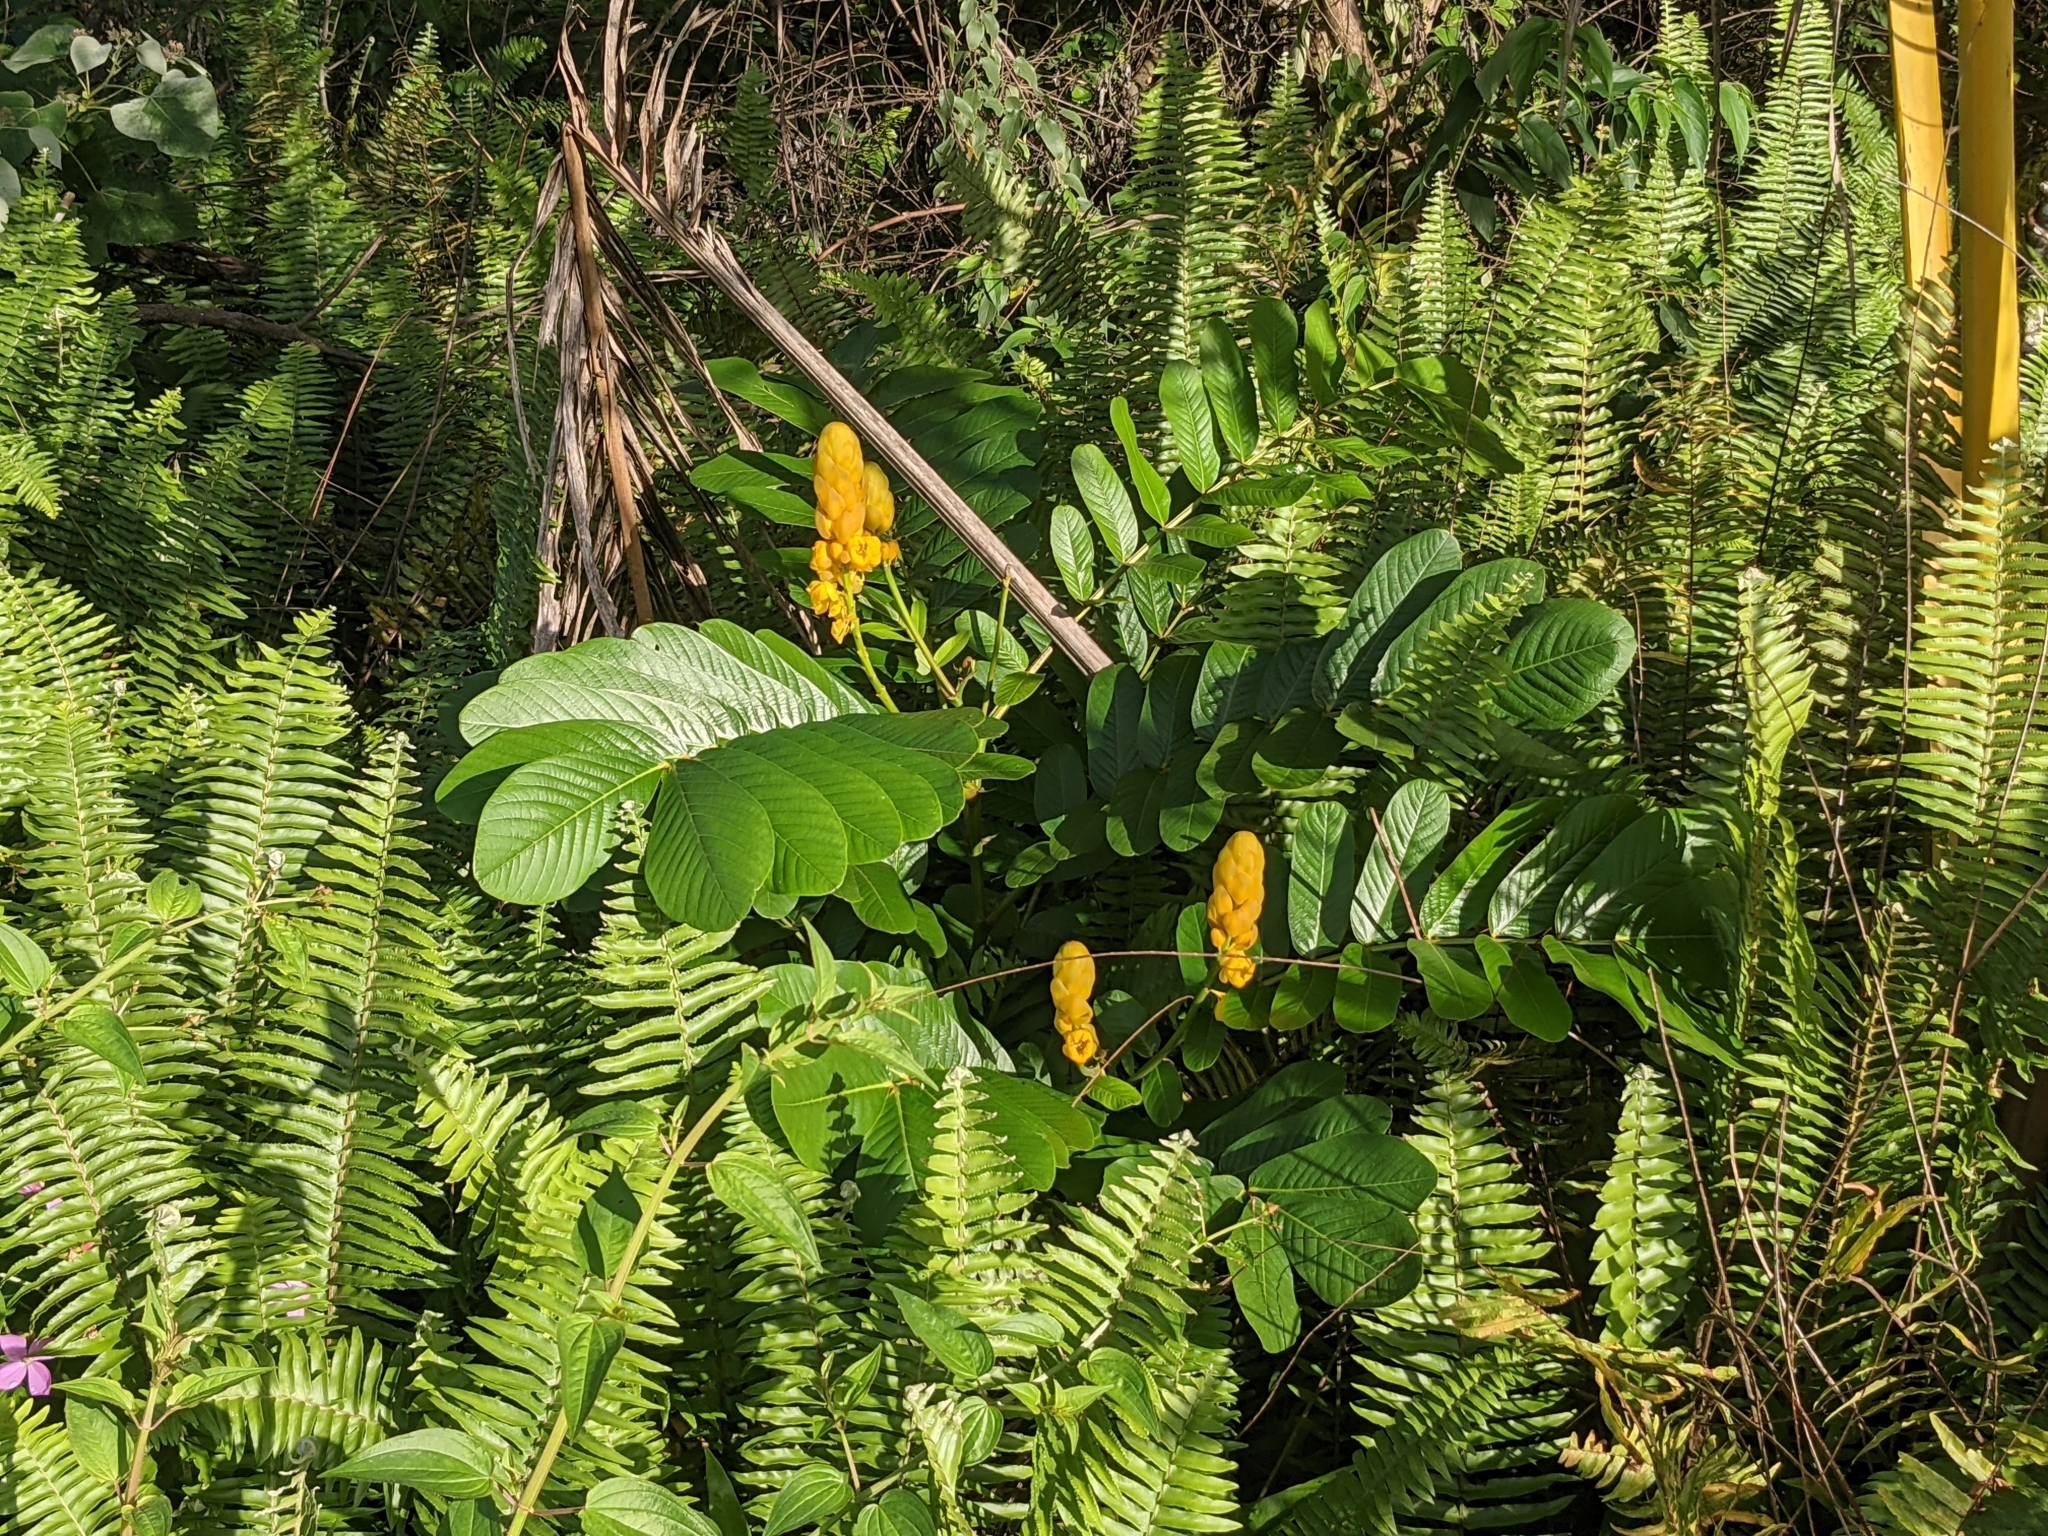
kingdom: Plantae
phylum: Tracheophyta
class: Magnoliopsida
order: Fabales
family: Fabaceae
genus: Senna
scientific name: Senna alata
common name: Emperor's candlesticks
